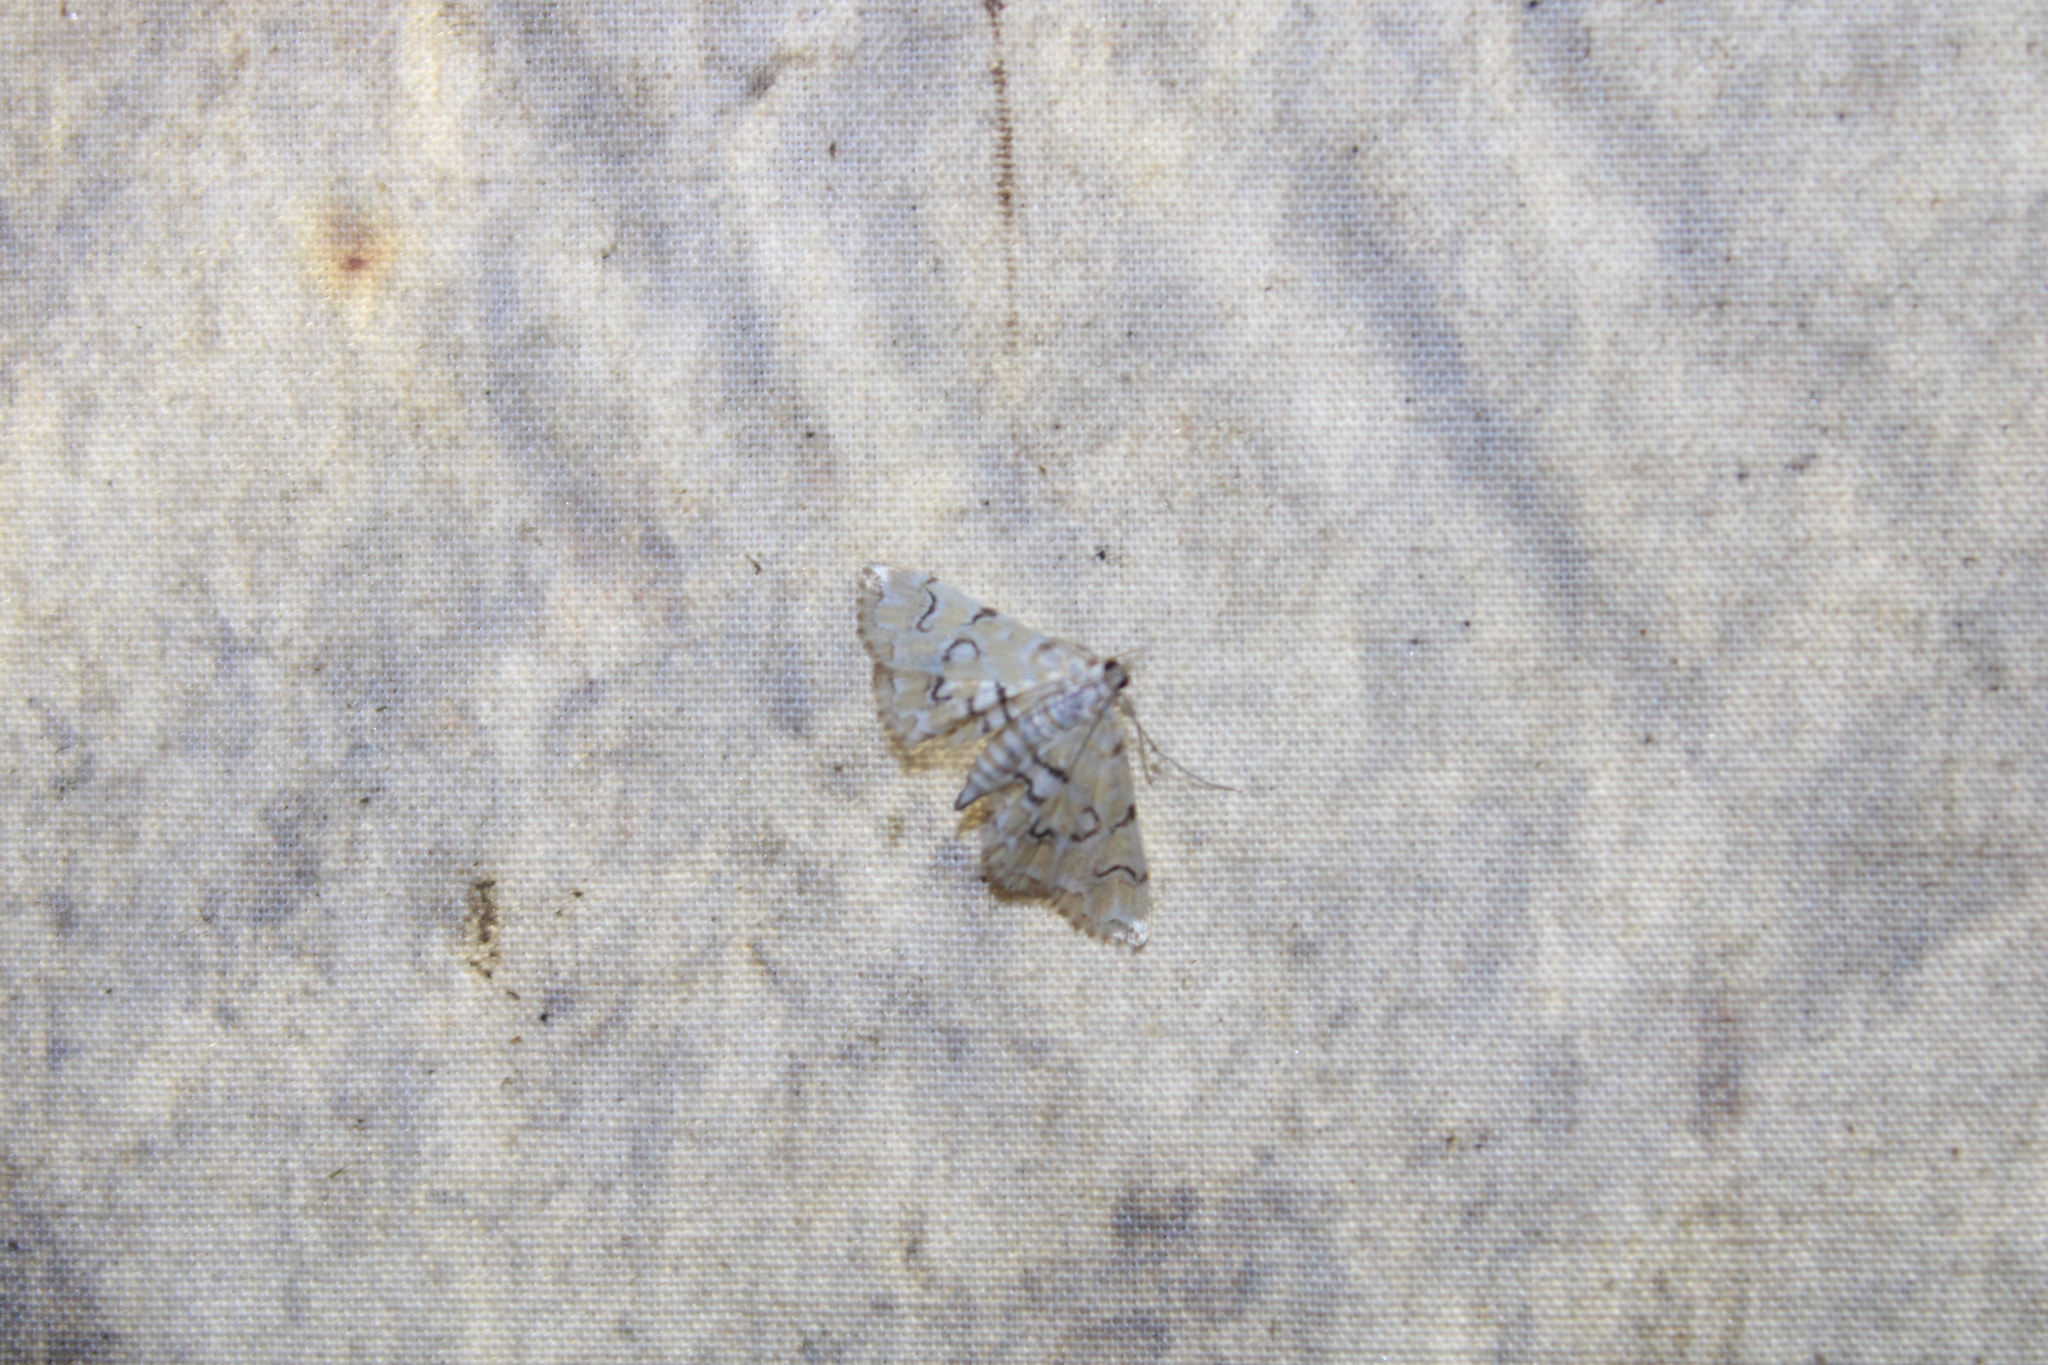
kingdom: Animalia
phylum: Arthropoda
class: Insecta
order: Lepidoptera
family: Crambidae
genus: Elophila
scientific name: Elophila icciusalis
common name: Pondside pyralid moth
